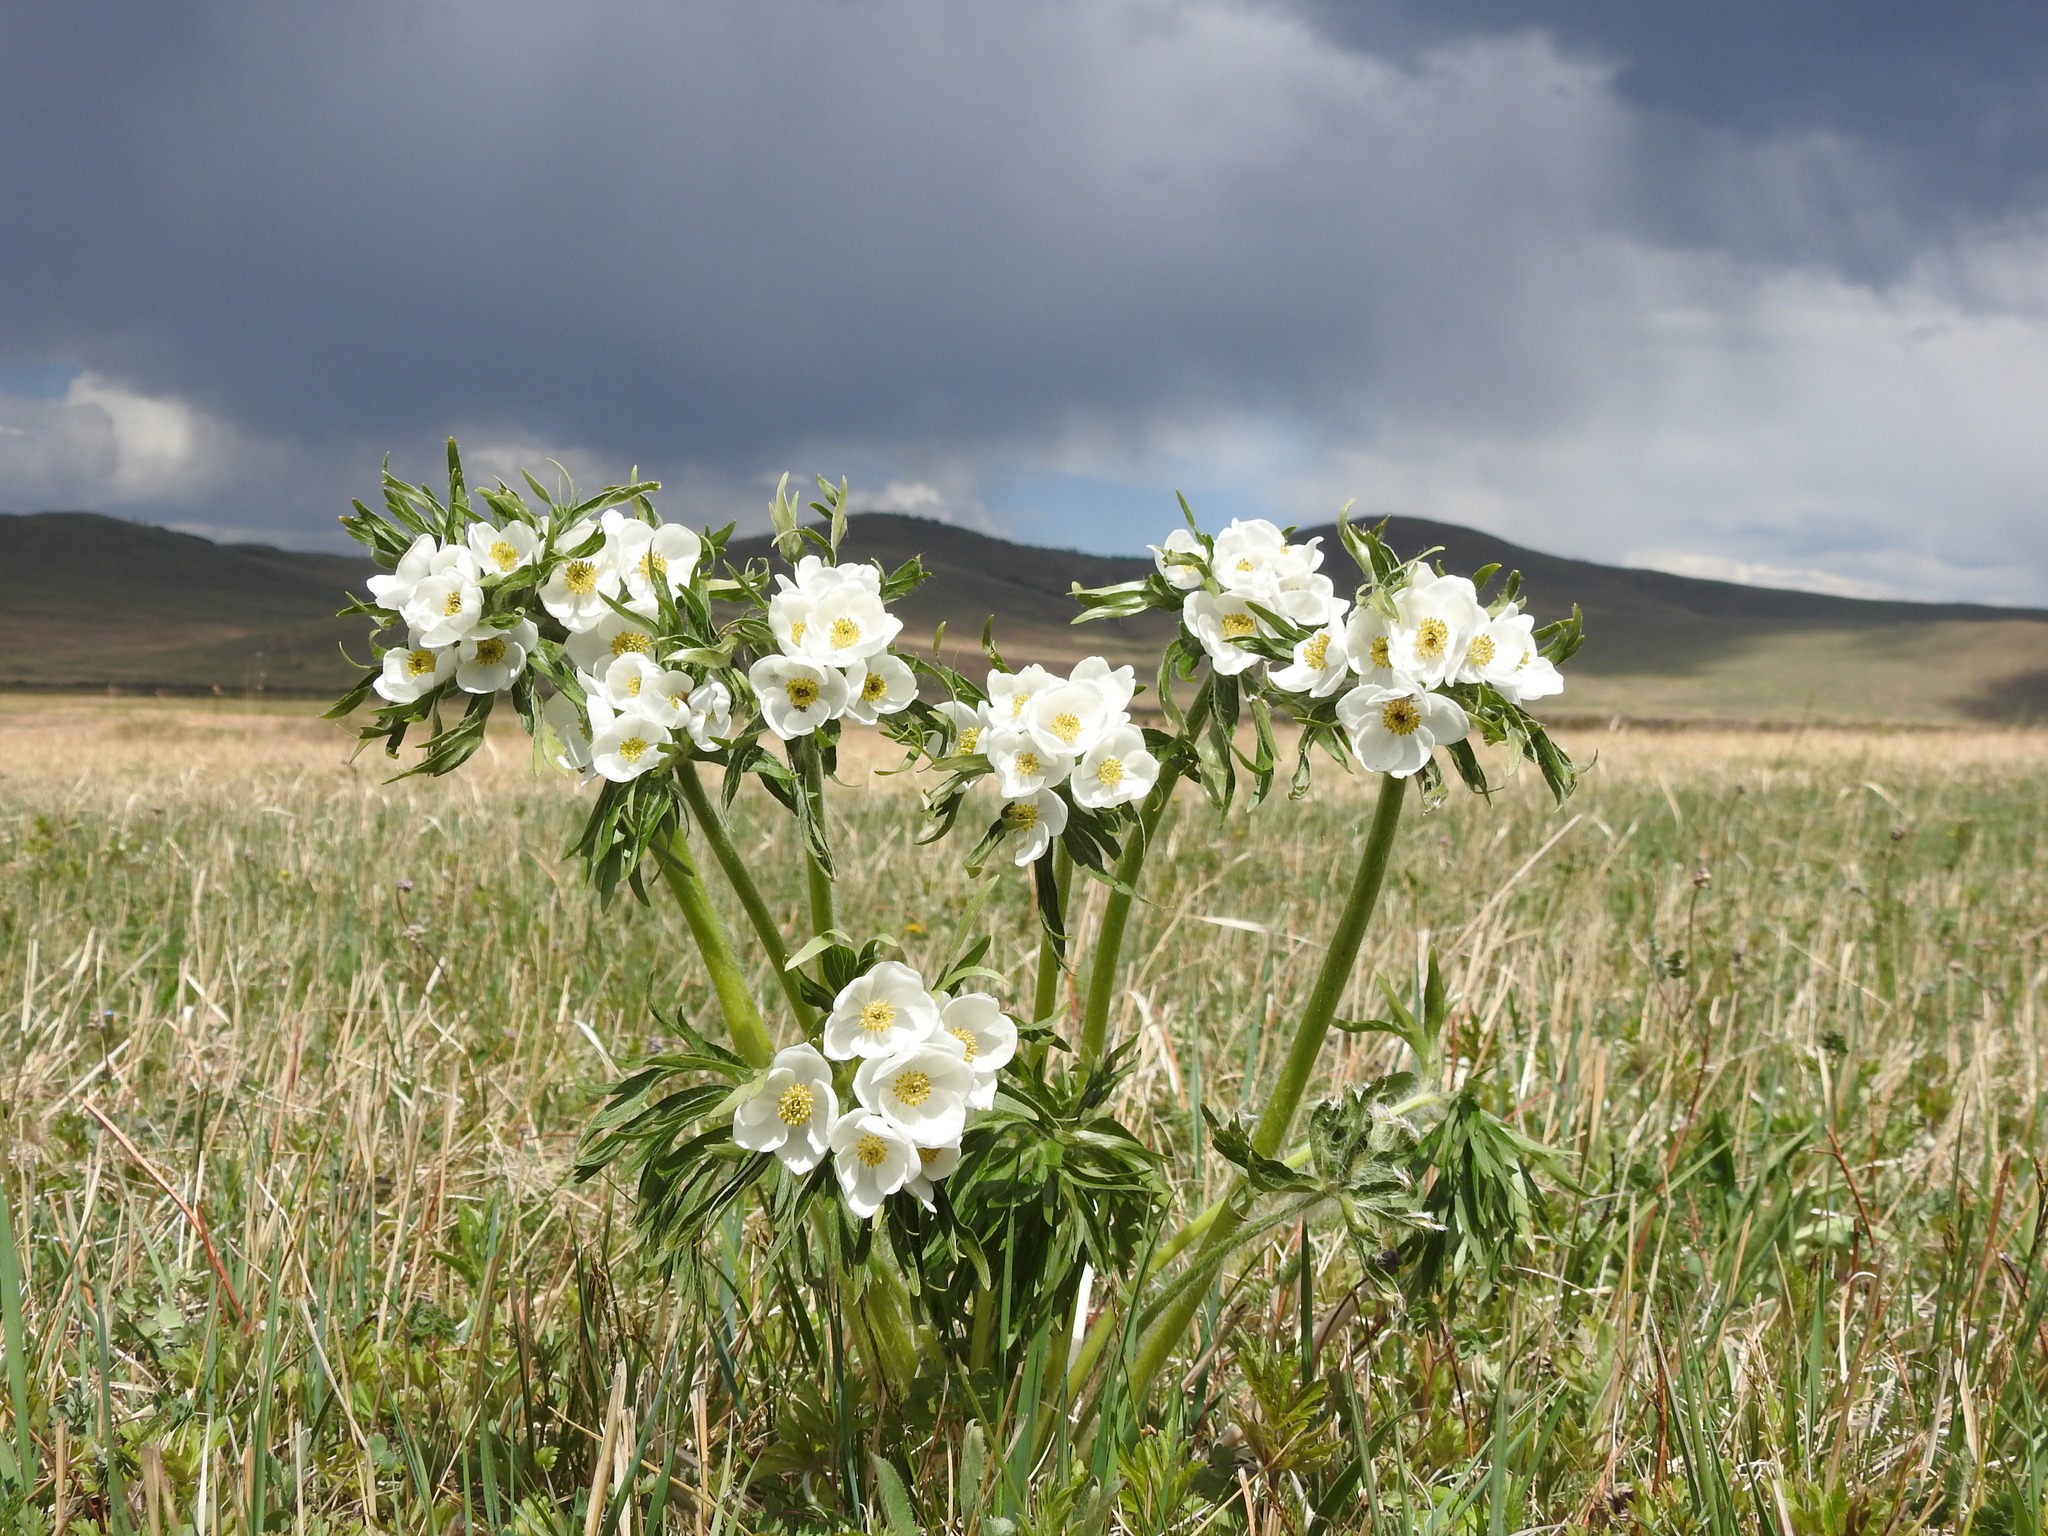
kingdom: Plantae
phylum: Tracheophyta
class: Magnoliopsida
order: Ranunculales
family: Ranunculaceae
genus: Anemonastrum
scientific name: Anemonastrum narcissiflorum
